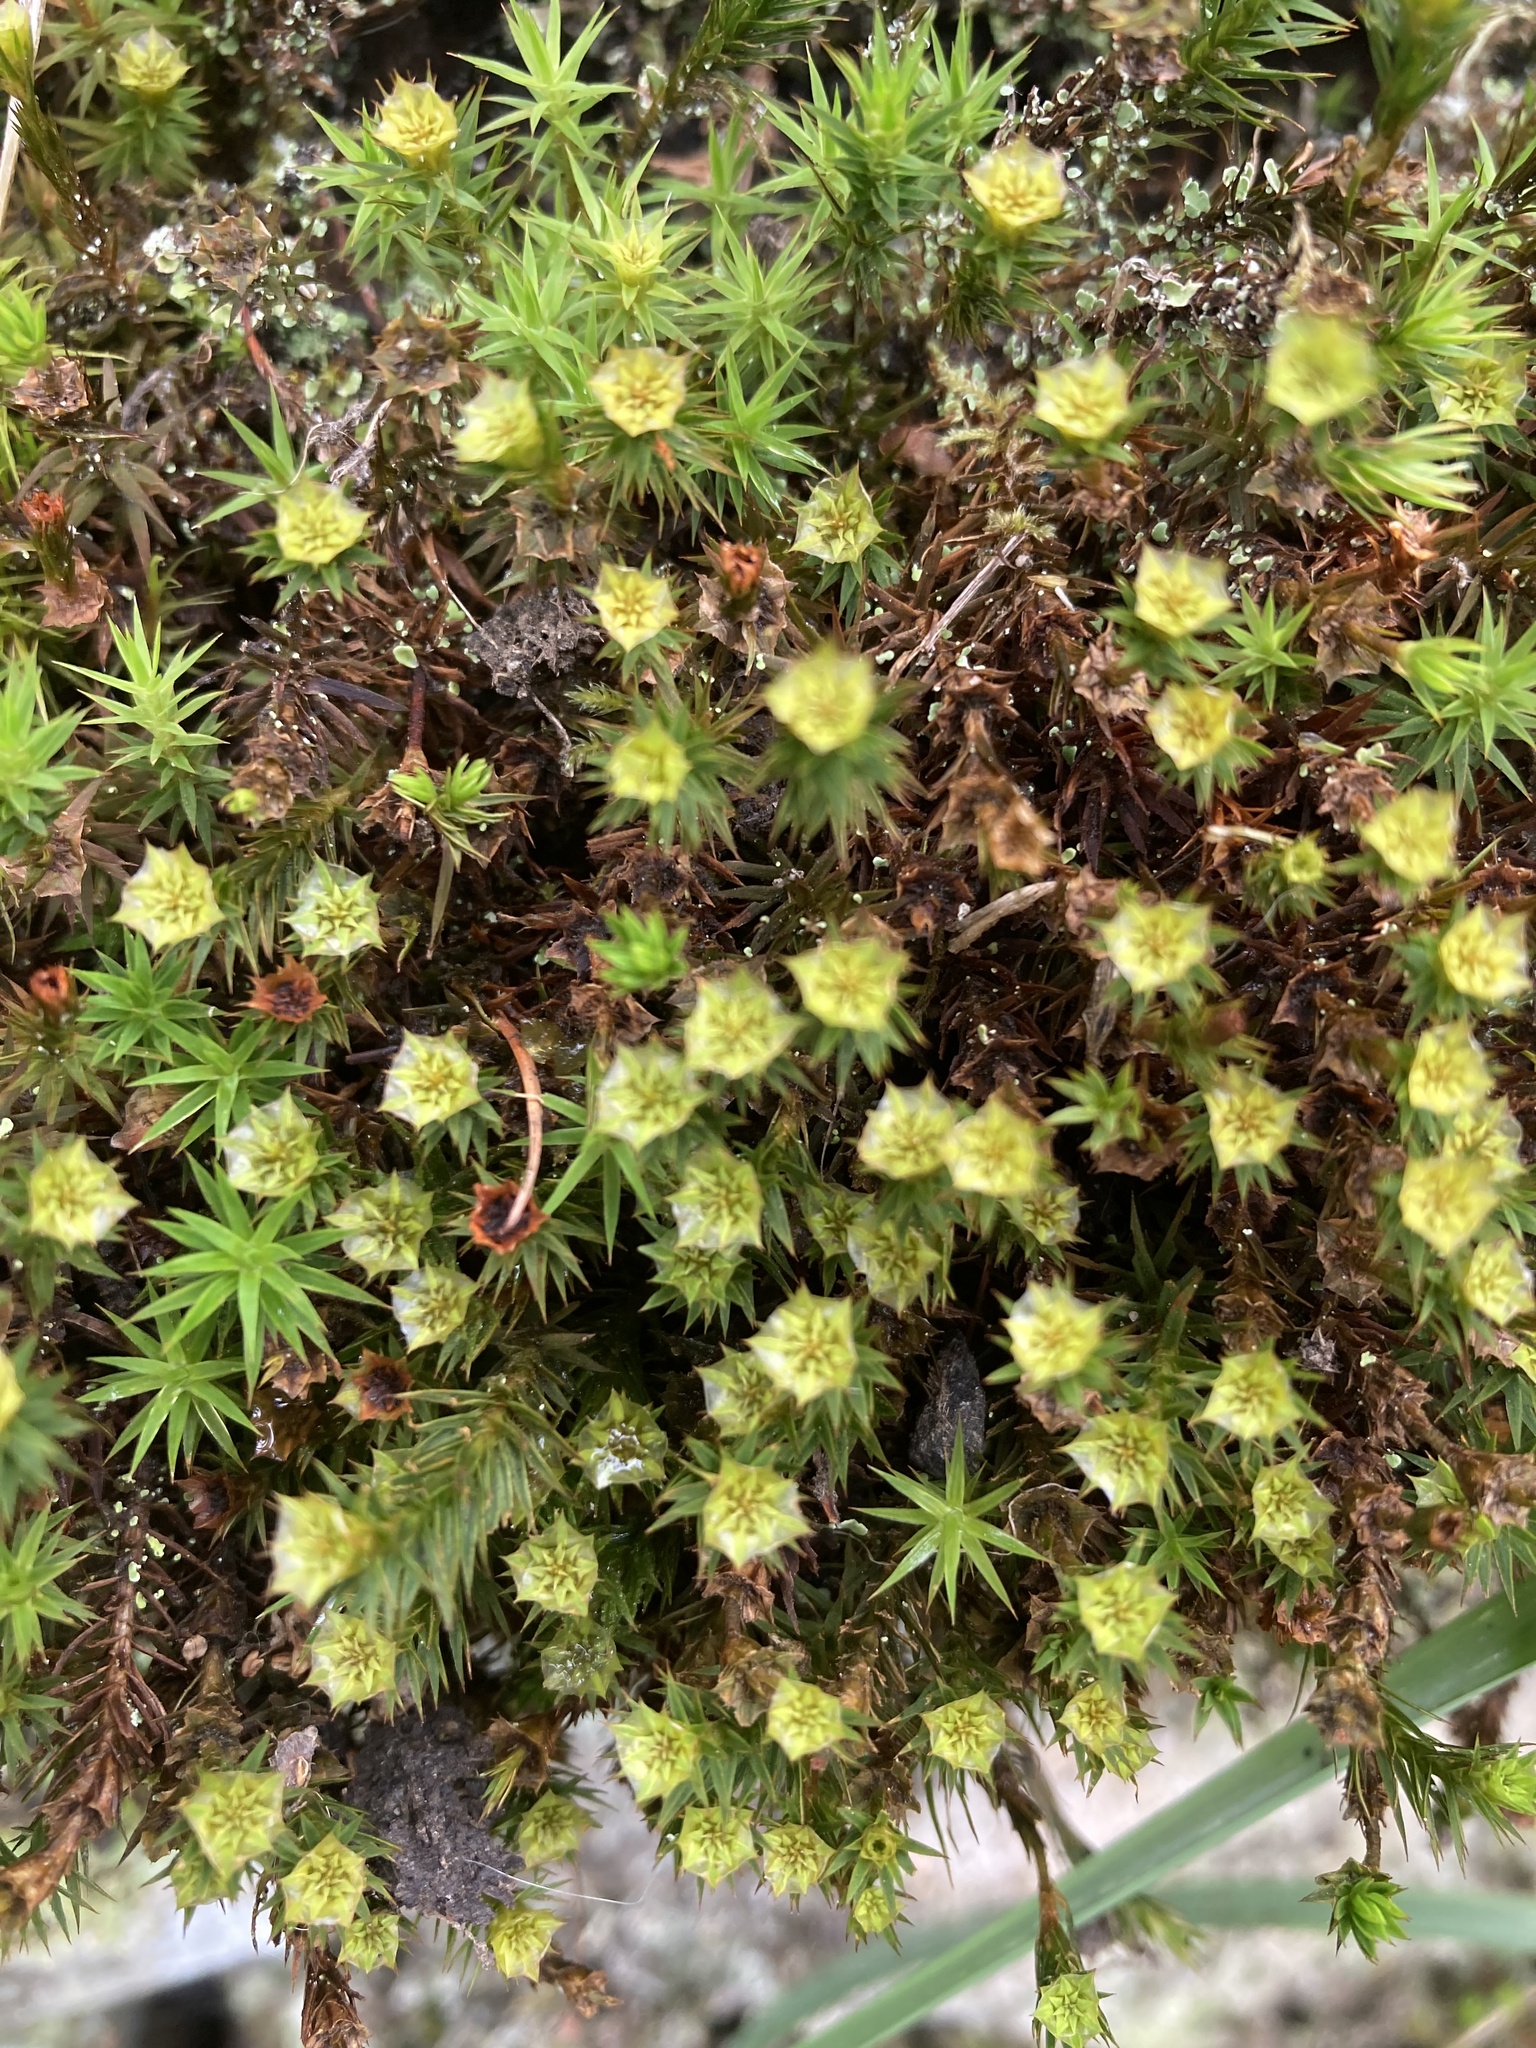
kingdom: Plantae
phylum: Bryophyta
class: Polytrichopsida
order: Polytrichales
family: Polytrichaceae
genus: Polytrichum
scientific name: Polytrichum formosum
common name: Bank haircap moss
